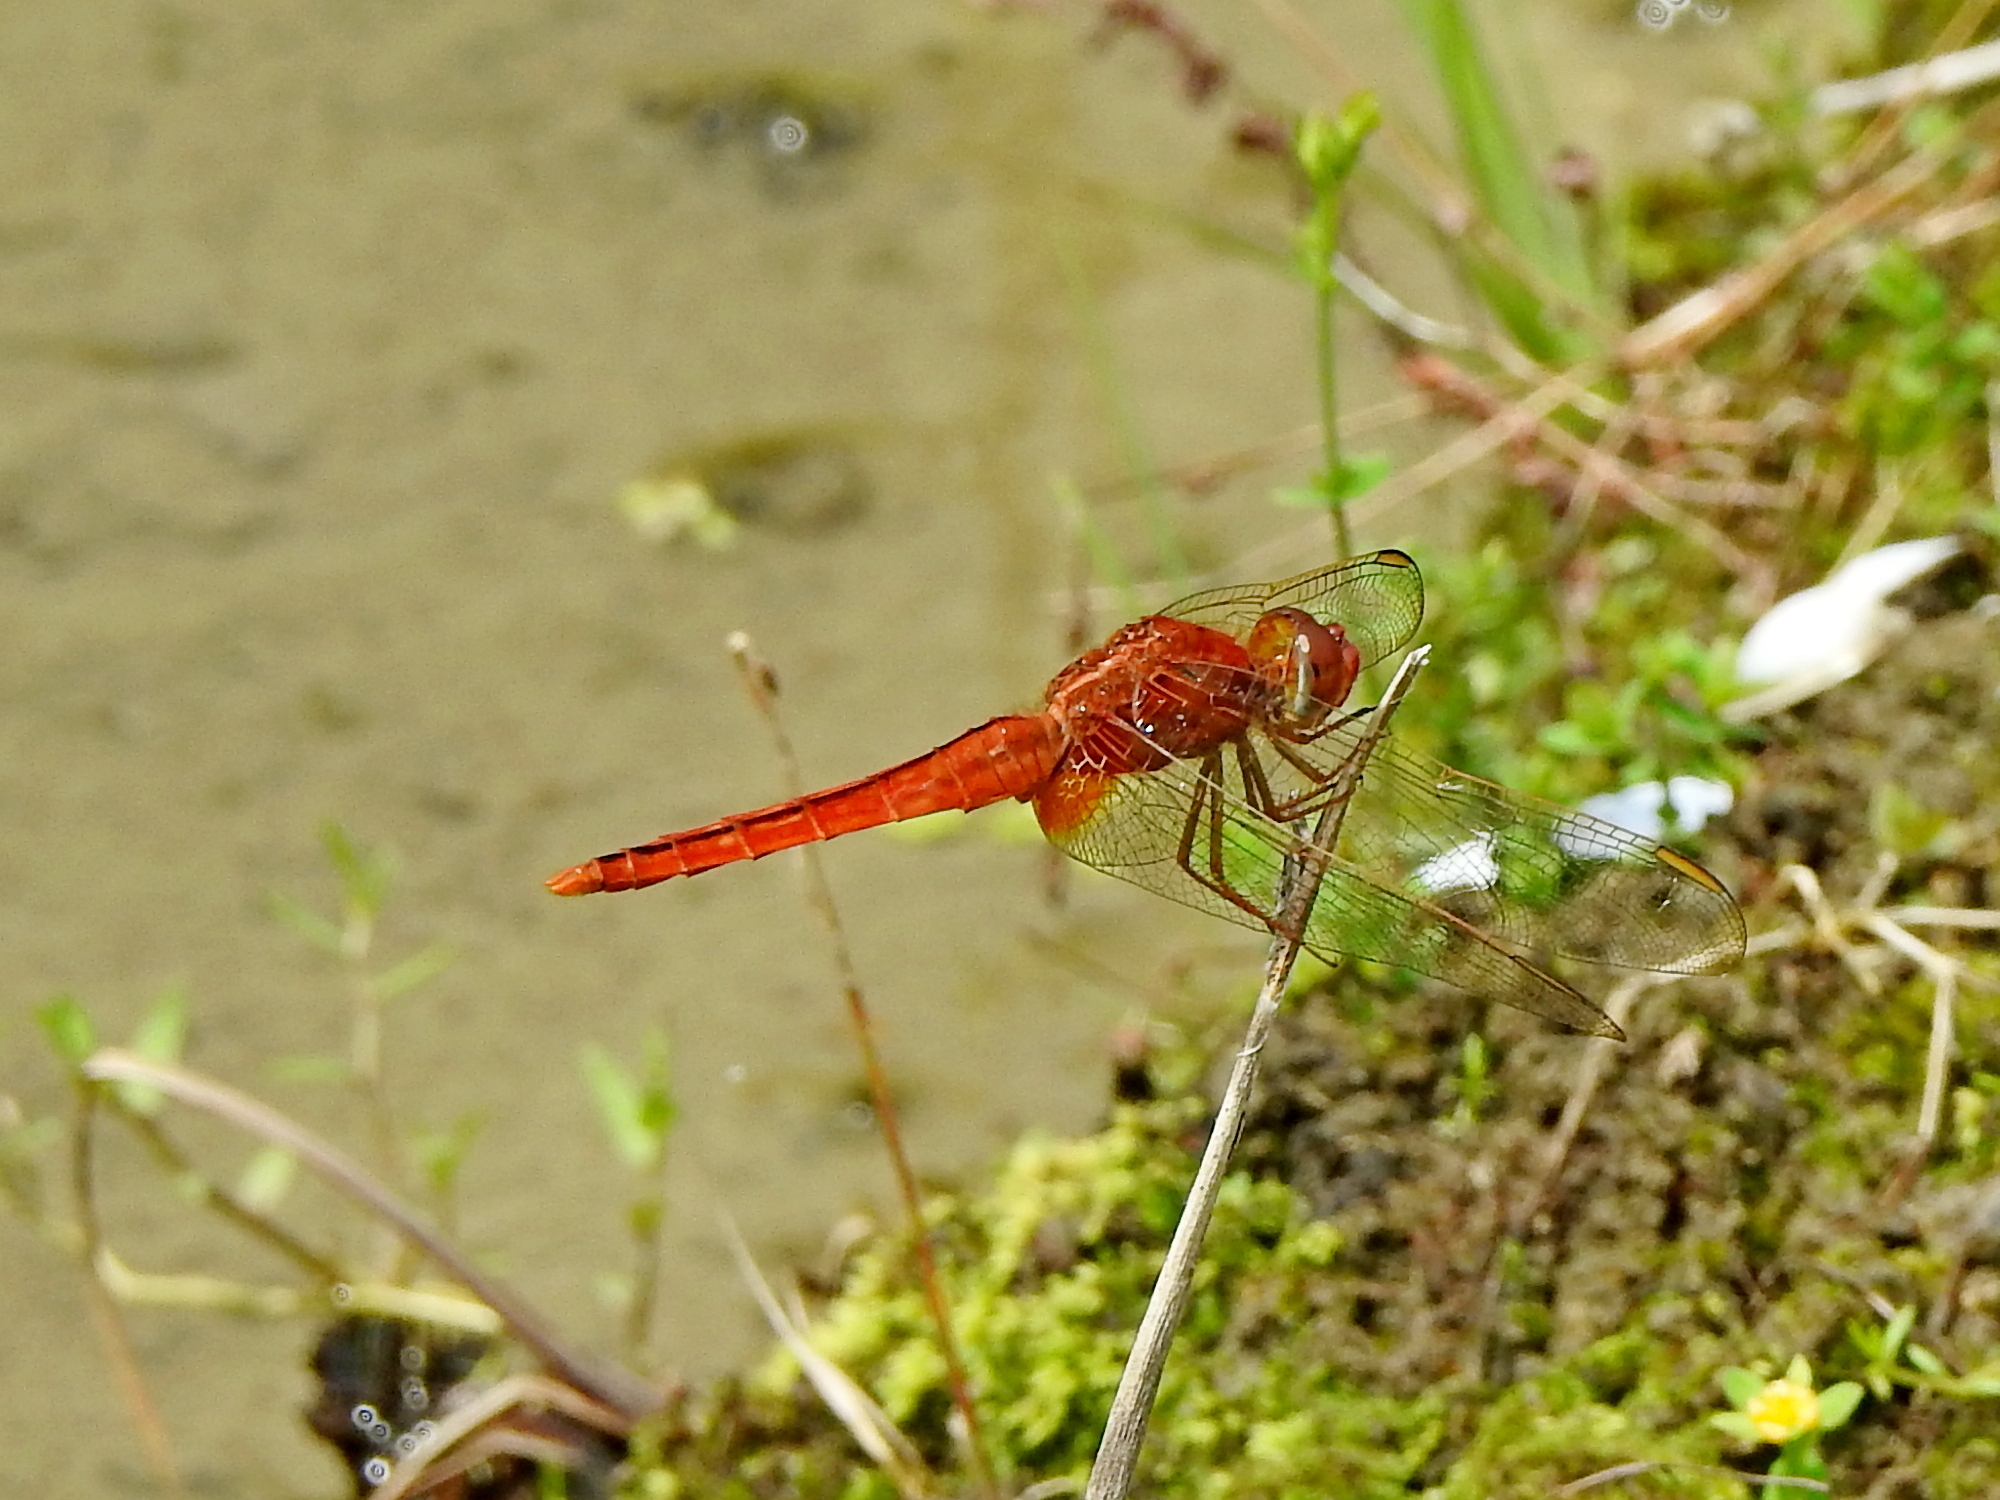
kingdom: Animalia
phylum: Arthropoda
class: Insecta
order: Odonata
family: Libellulidae
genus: Crocothemis
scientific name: Crocothemis servilia
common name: Scarlet skimmer
